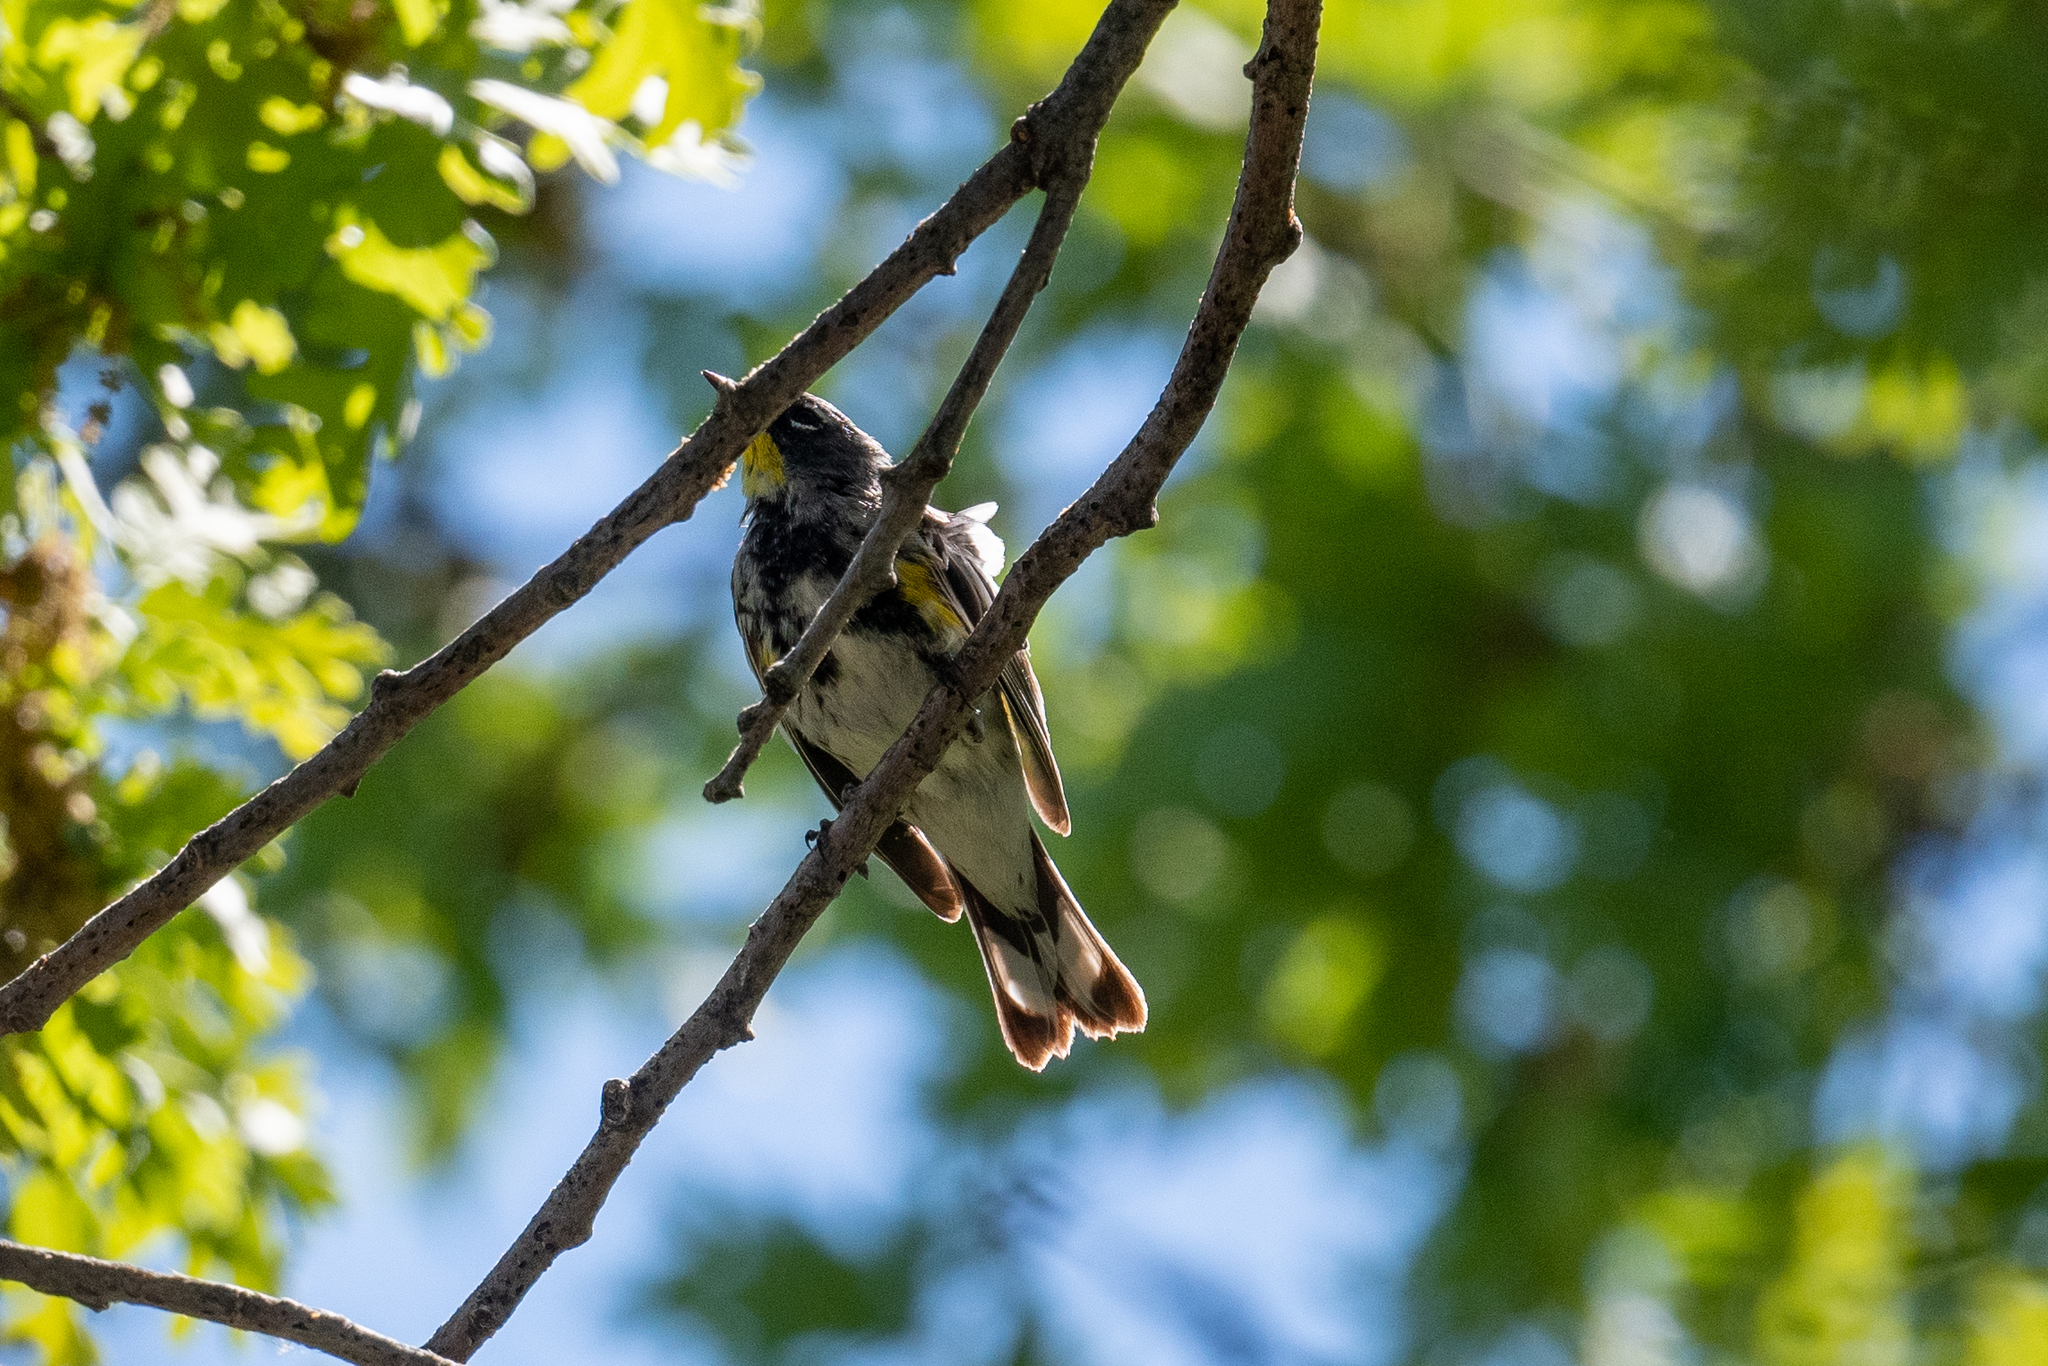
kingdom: Animalia
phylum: Chordata
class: Aves
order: Passeriformes
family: Parulidae
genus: Setophaga
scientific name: Setophaga coronata
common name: Myrtle warbler
